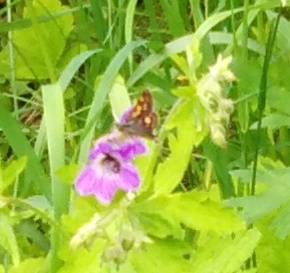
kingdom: Animalia
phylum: Arthropoda
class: Insecta
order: Lepidoptera
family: Hesperiidae
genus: Carterocephalus
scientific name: Carterocephalus palaemon
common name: Chequered skipper
